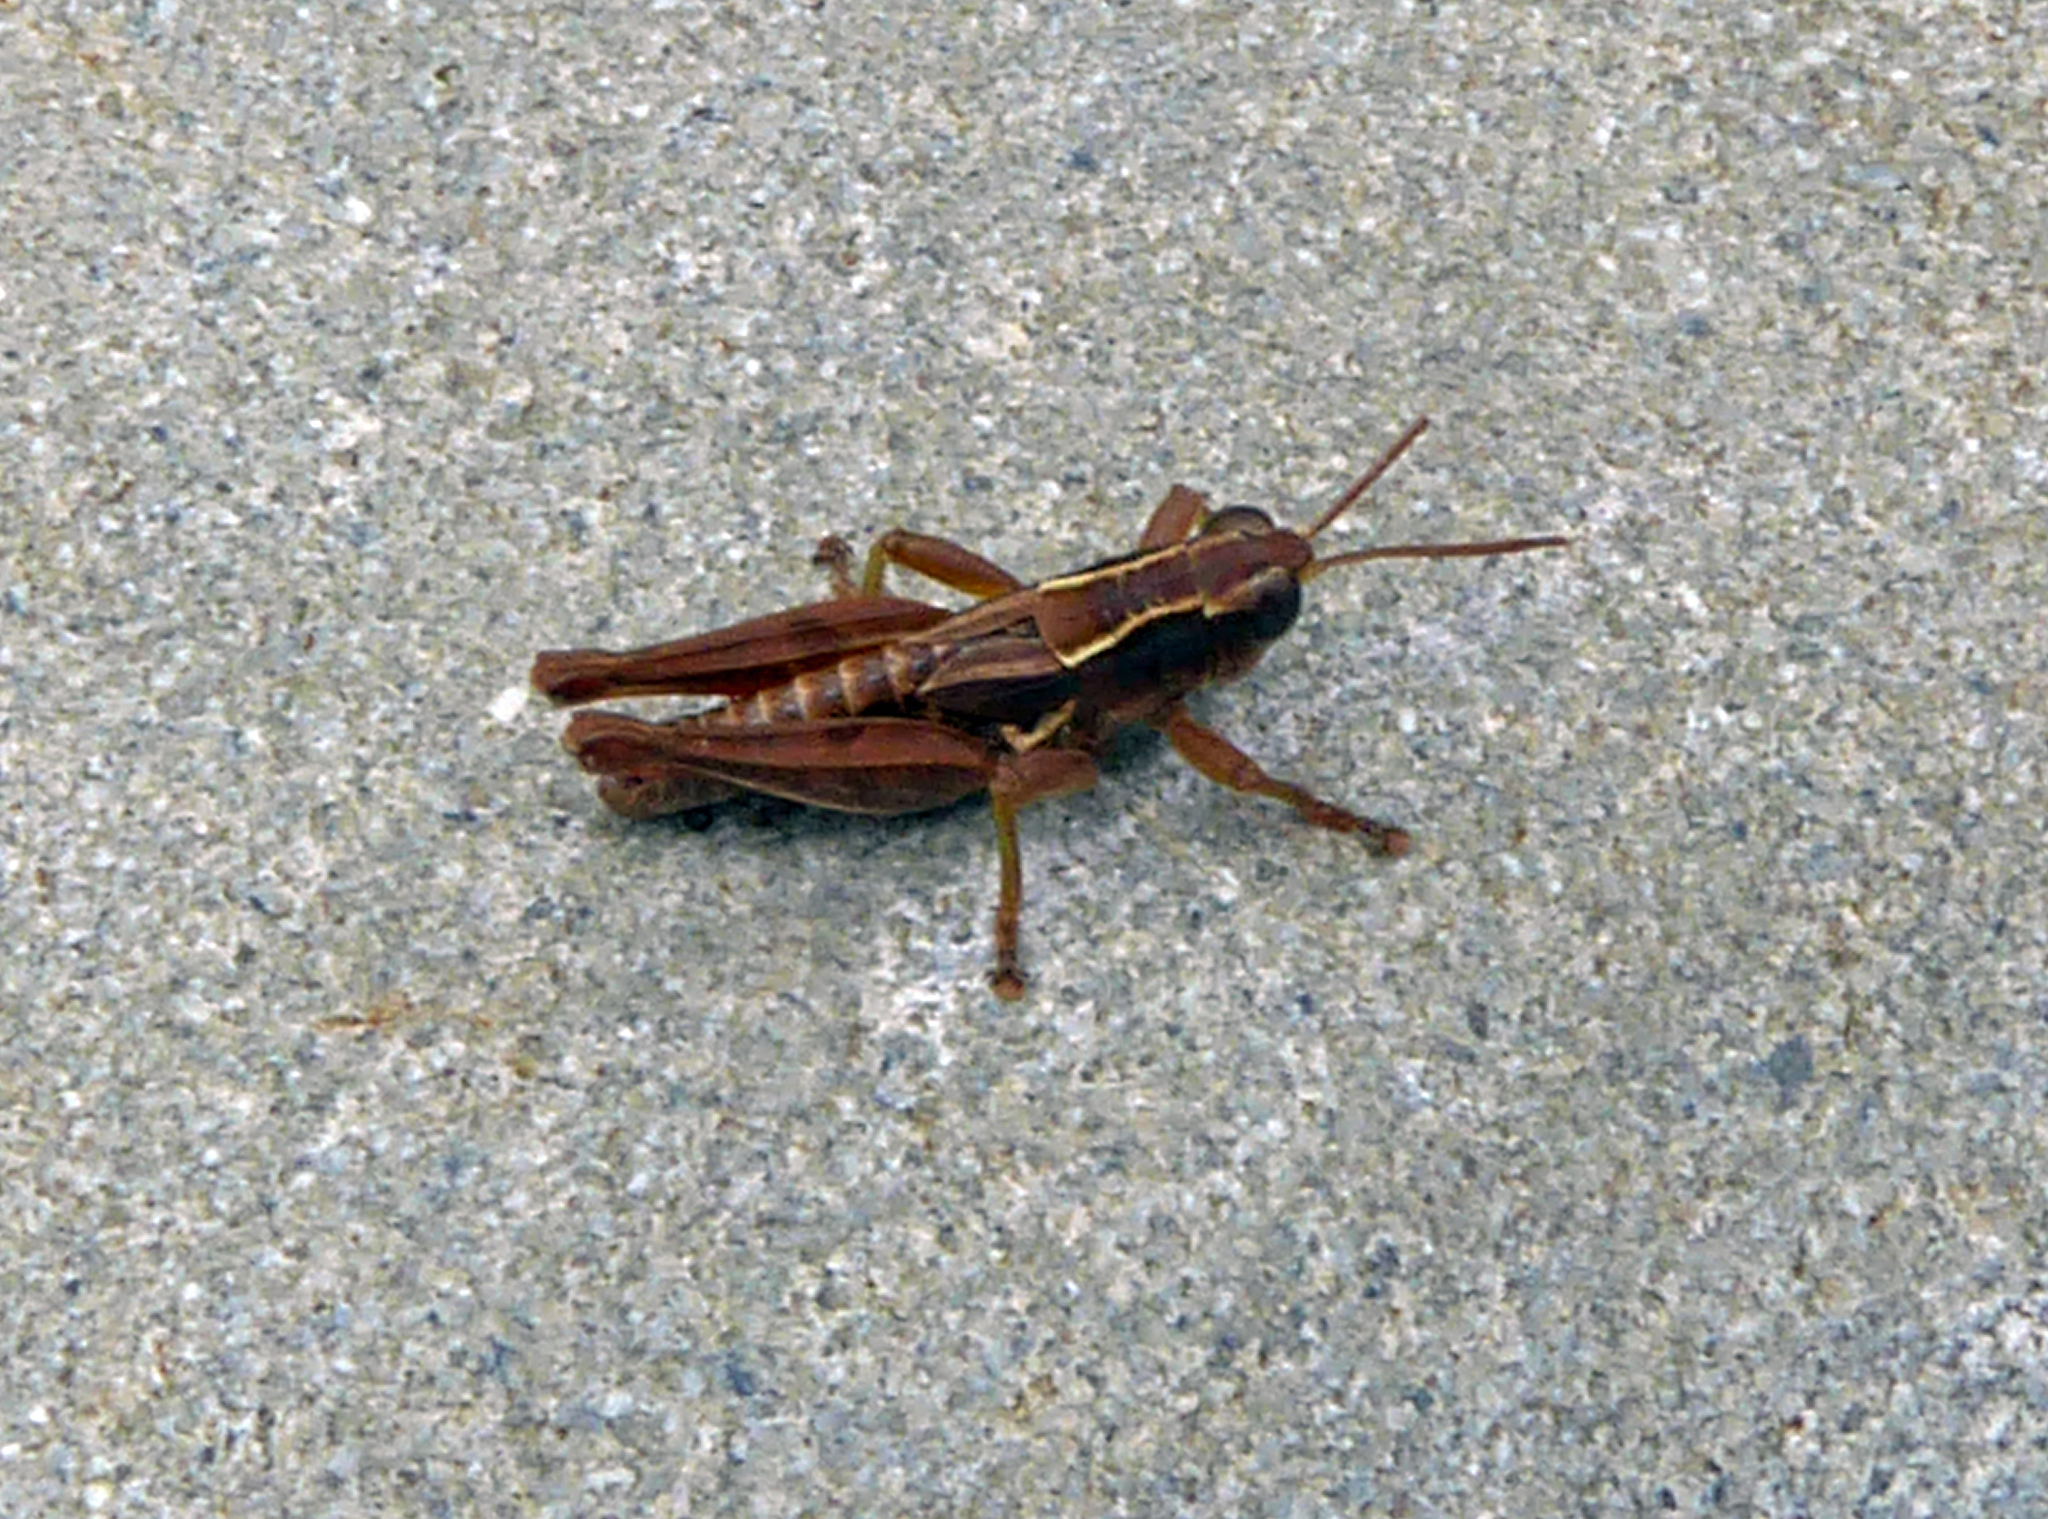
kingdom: Animalia
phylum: Arthropoda
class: Insecta
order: Orthoptera
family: Acrididae
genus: Phaulacridium
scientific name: Phaulacridium marginale
